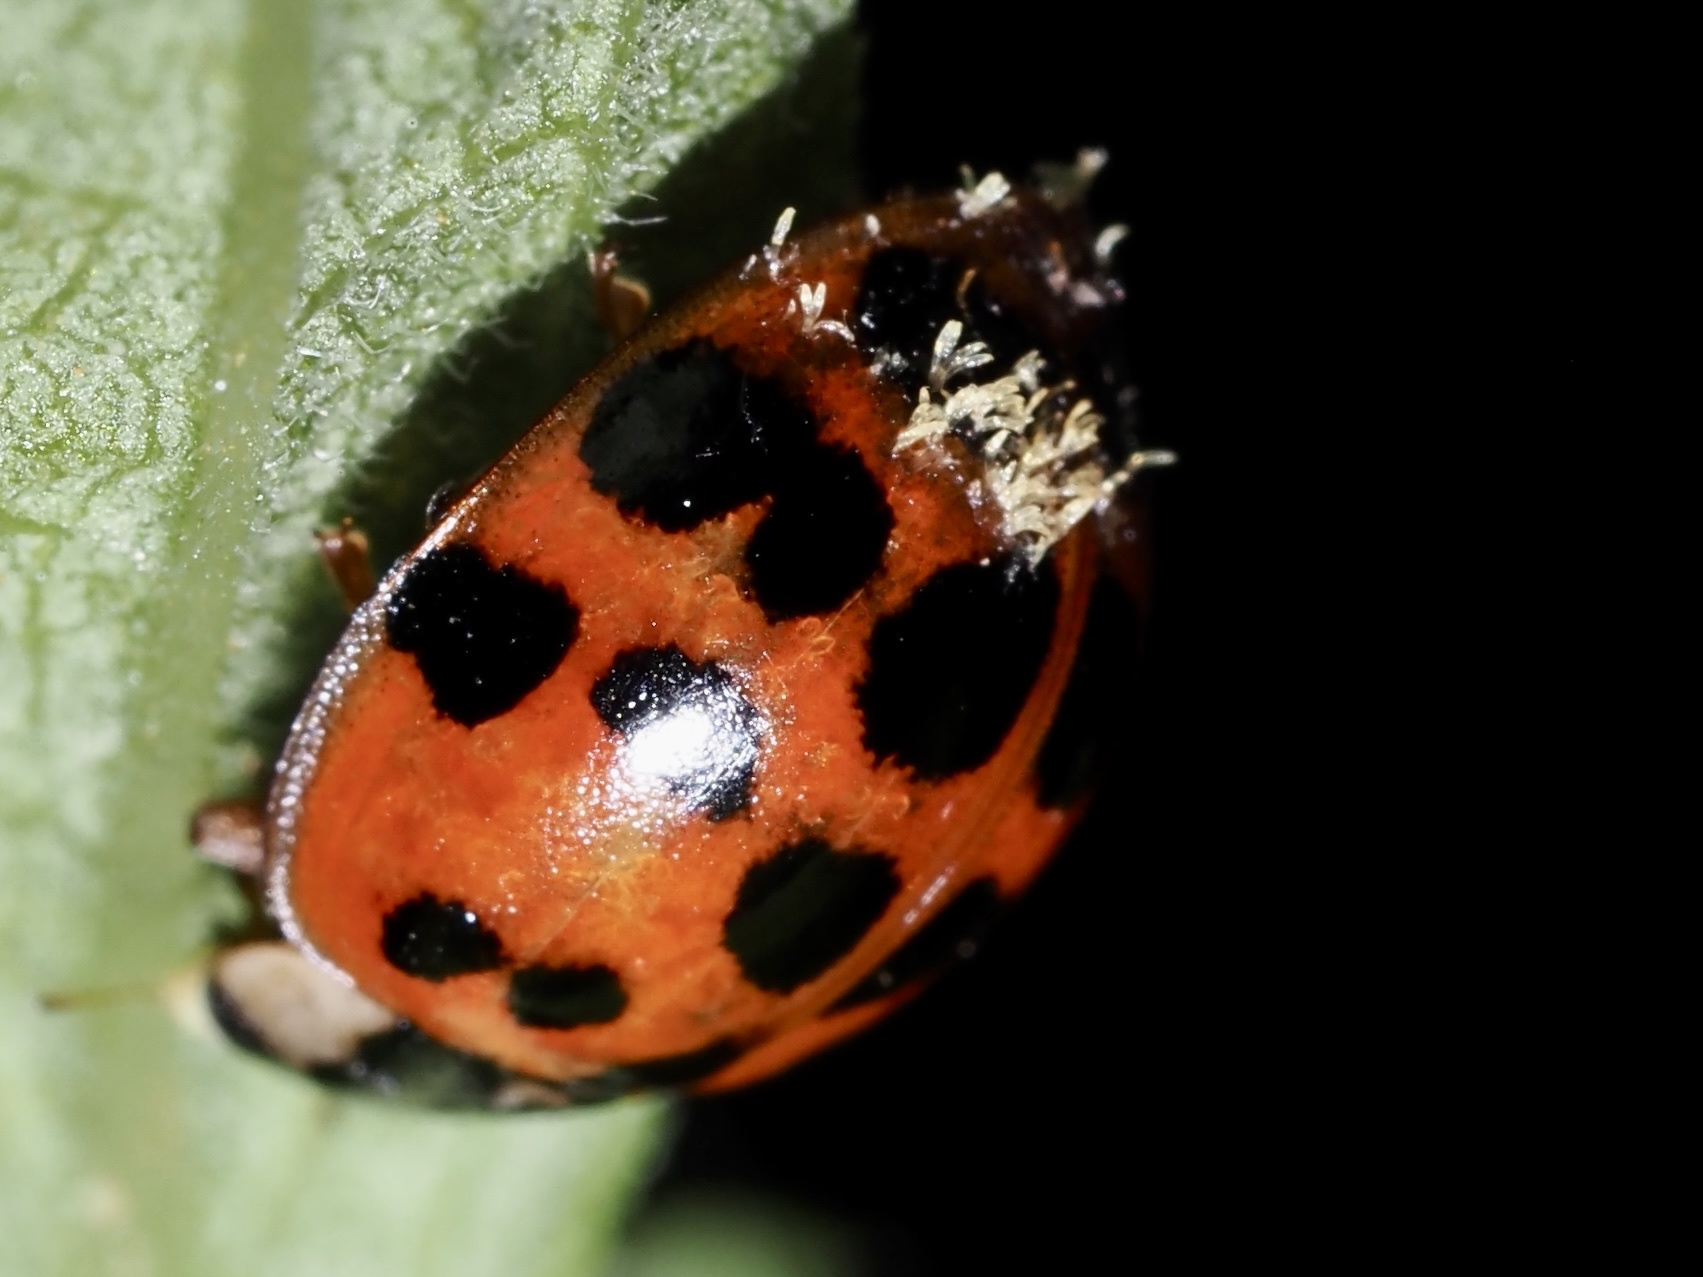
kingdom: Fungi
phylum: Ascomycota
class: Laboulbeniomycetes
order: Laboulbeniales
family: Laboulbeniaceae
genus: Hesperomyces
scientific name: Hesperomyces harmoniae
